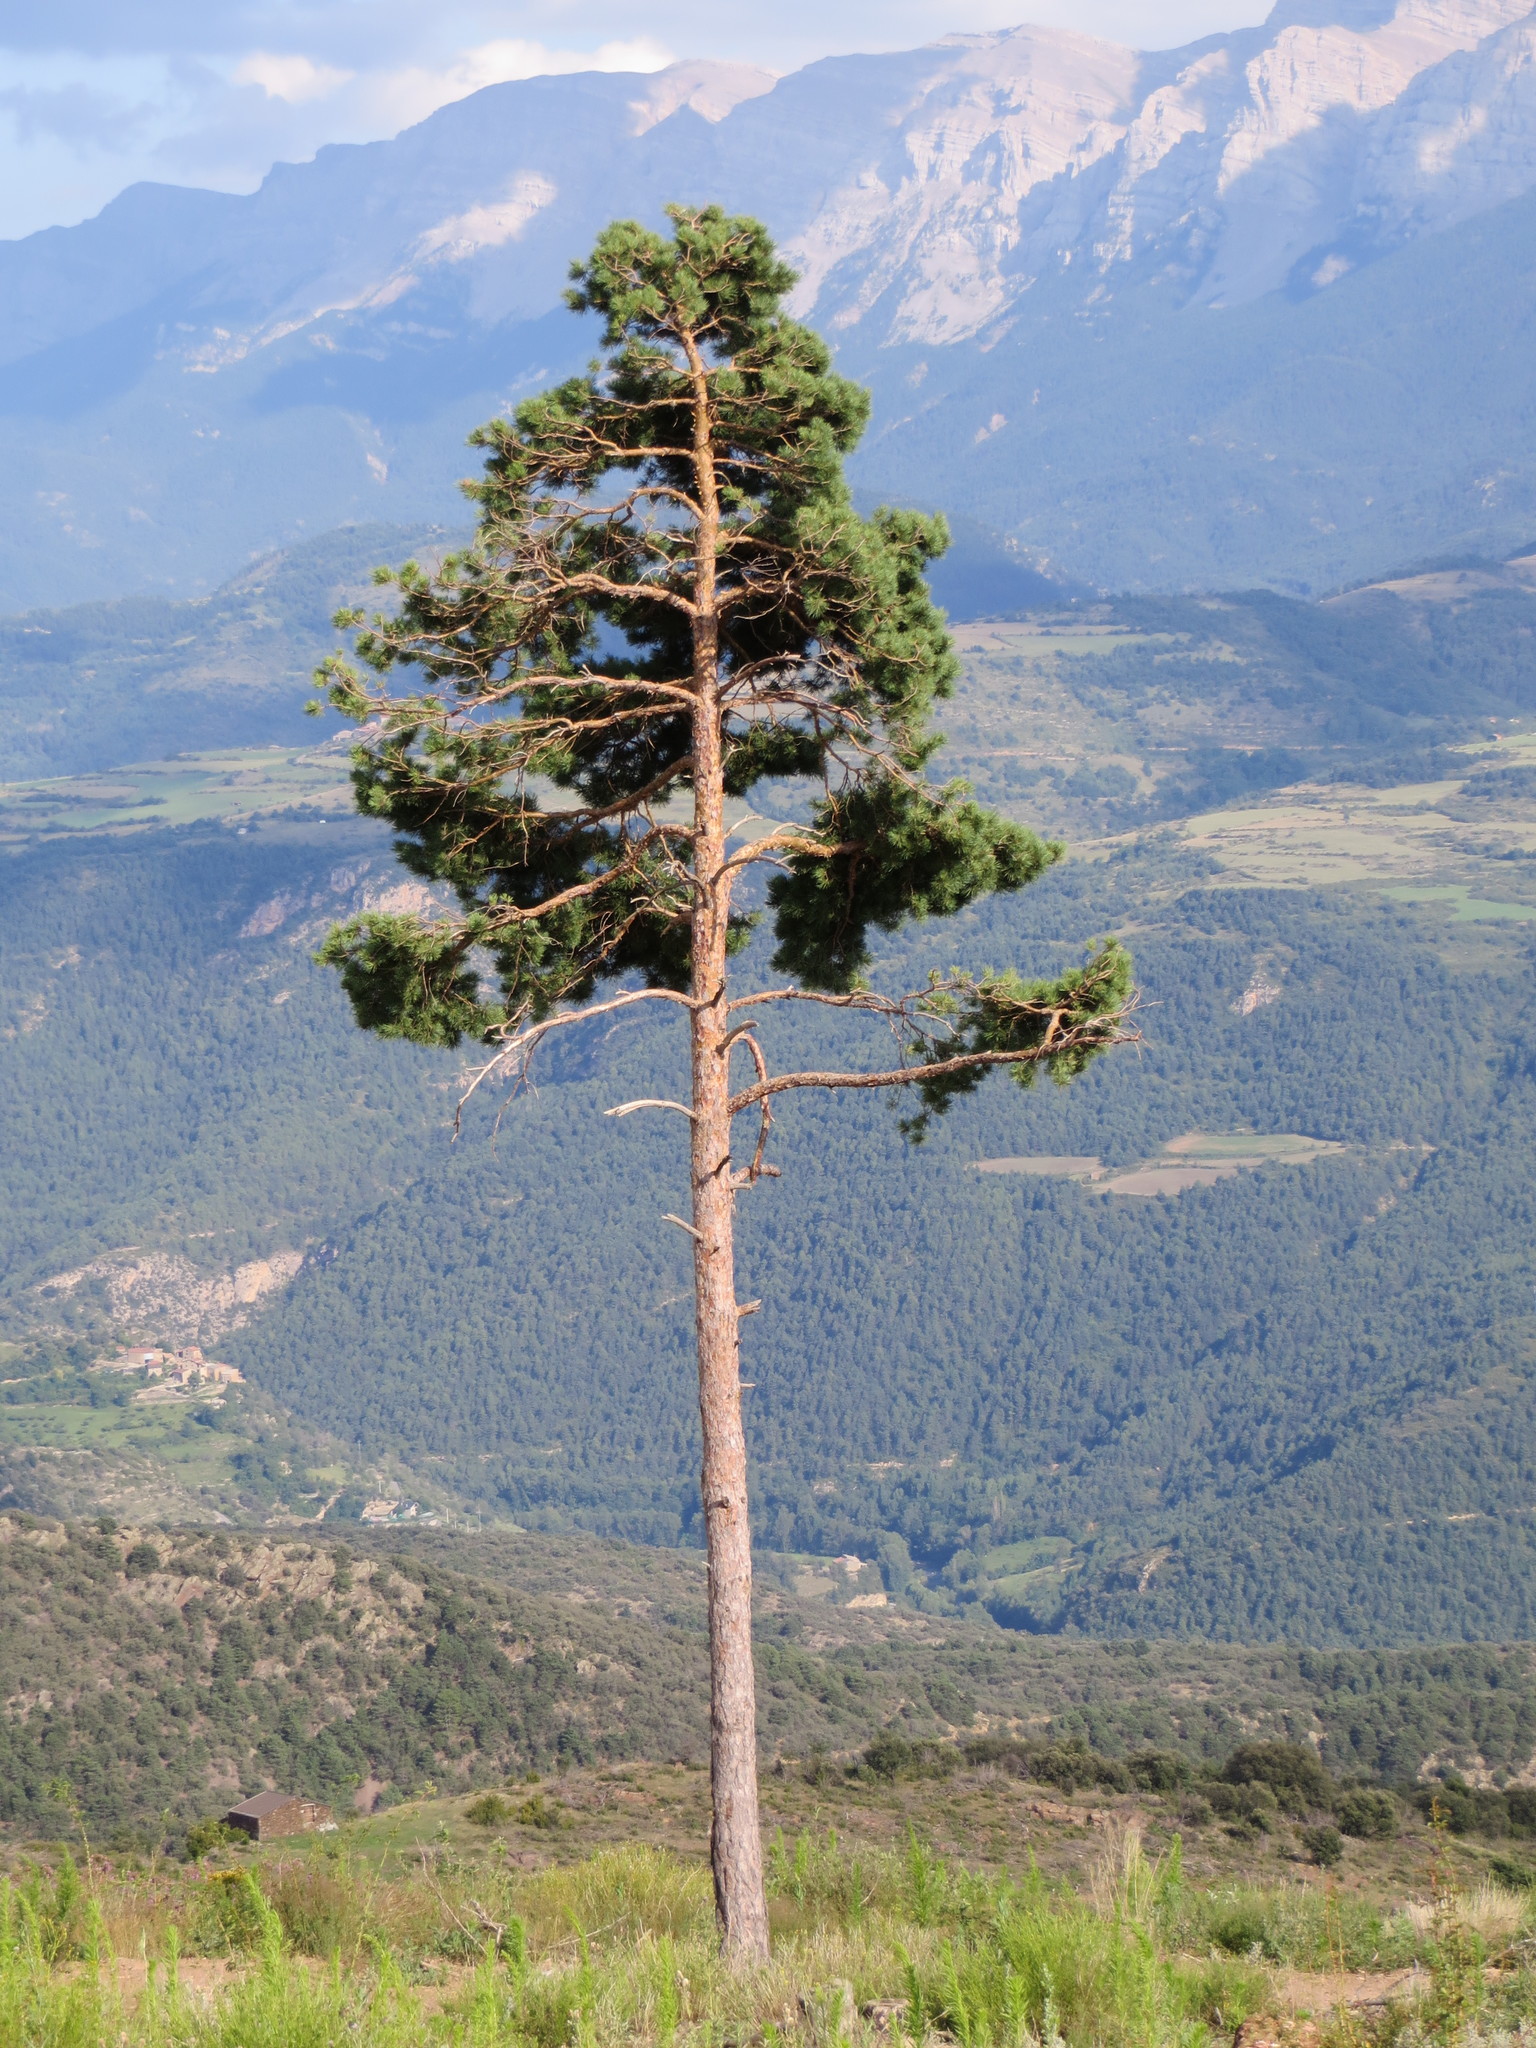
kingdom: Plantae
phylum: Tracheophyta
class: Pinopsida
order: Pinales
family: Pinaceae
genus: Pinus
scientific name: Pinus sylvestris
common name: Scots pine
